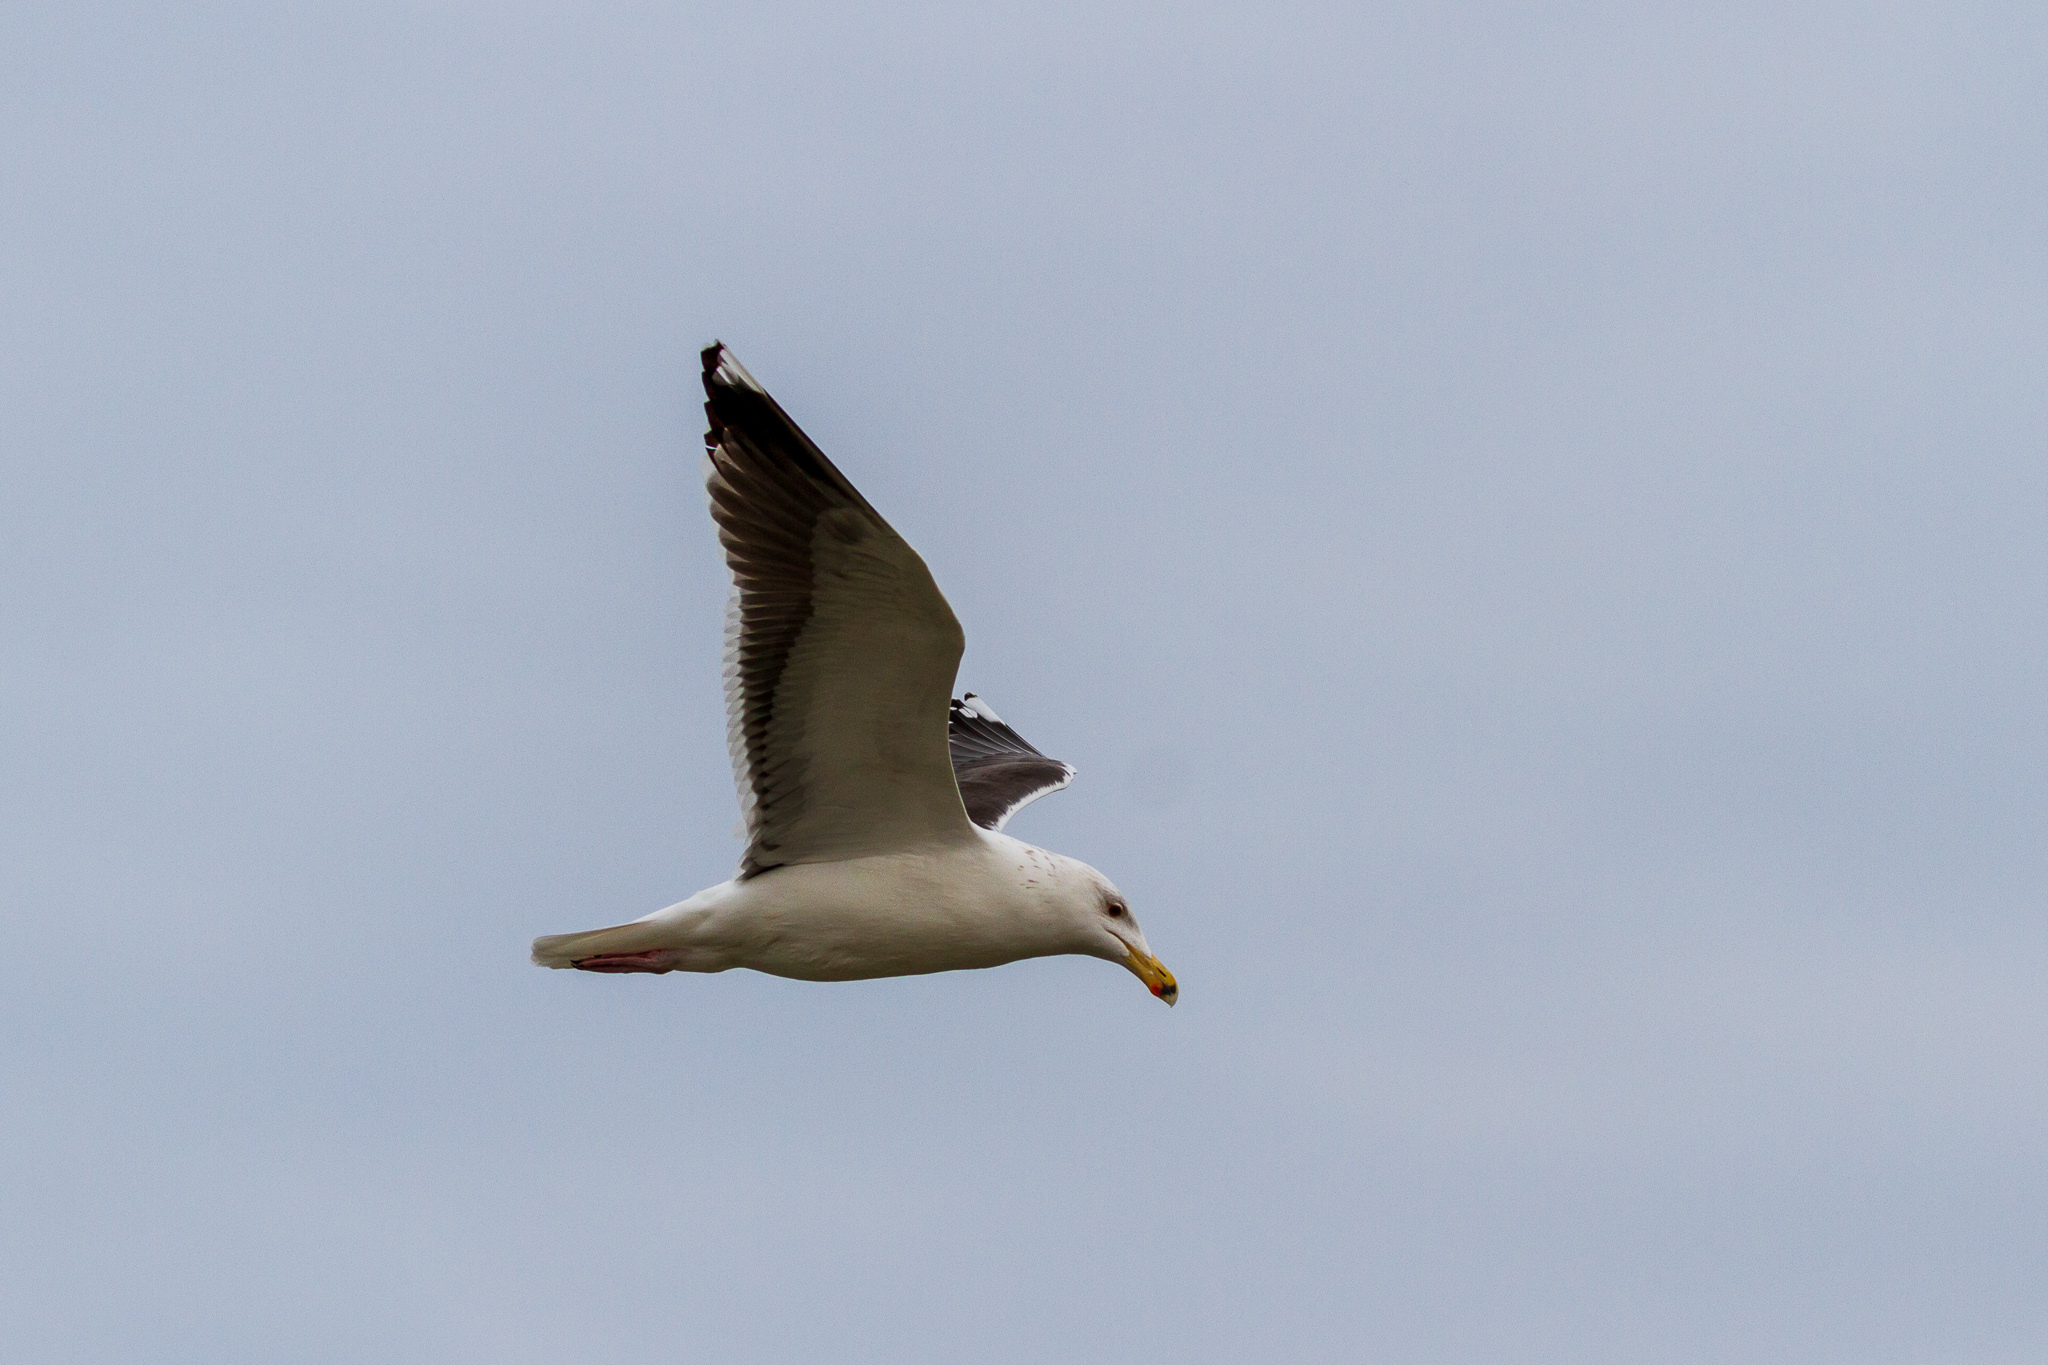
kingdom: Animalia
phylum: Chordata
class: Aves
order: Charadriiformes
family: Laridae
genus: Larus
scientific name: Larus marinus
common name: Great black-backed gull
